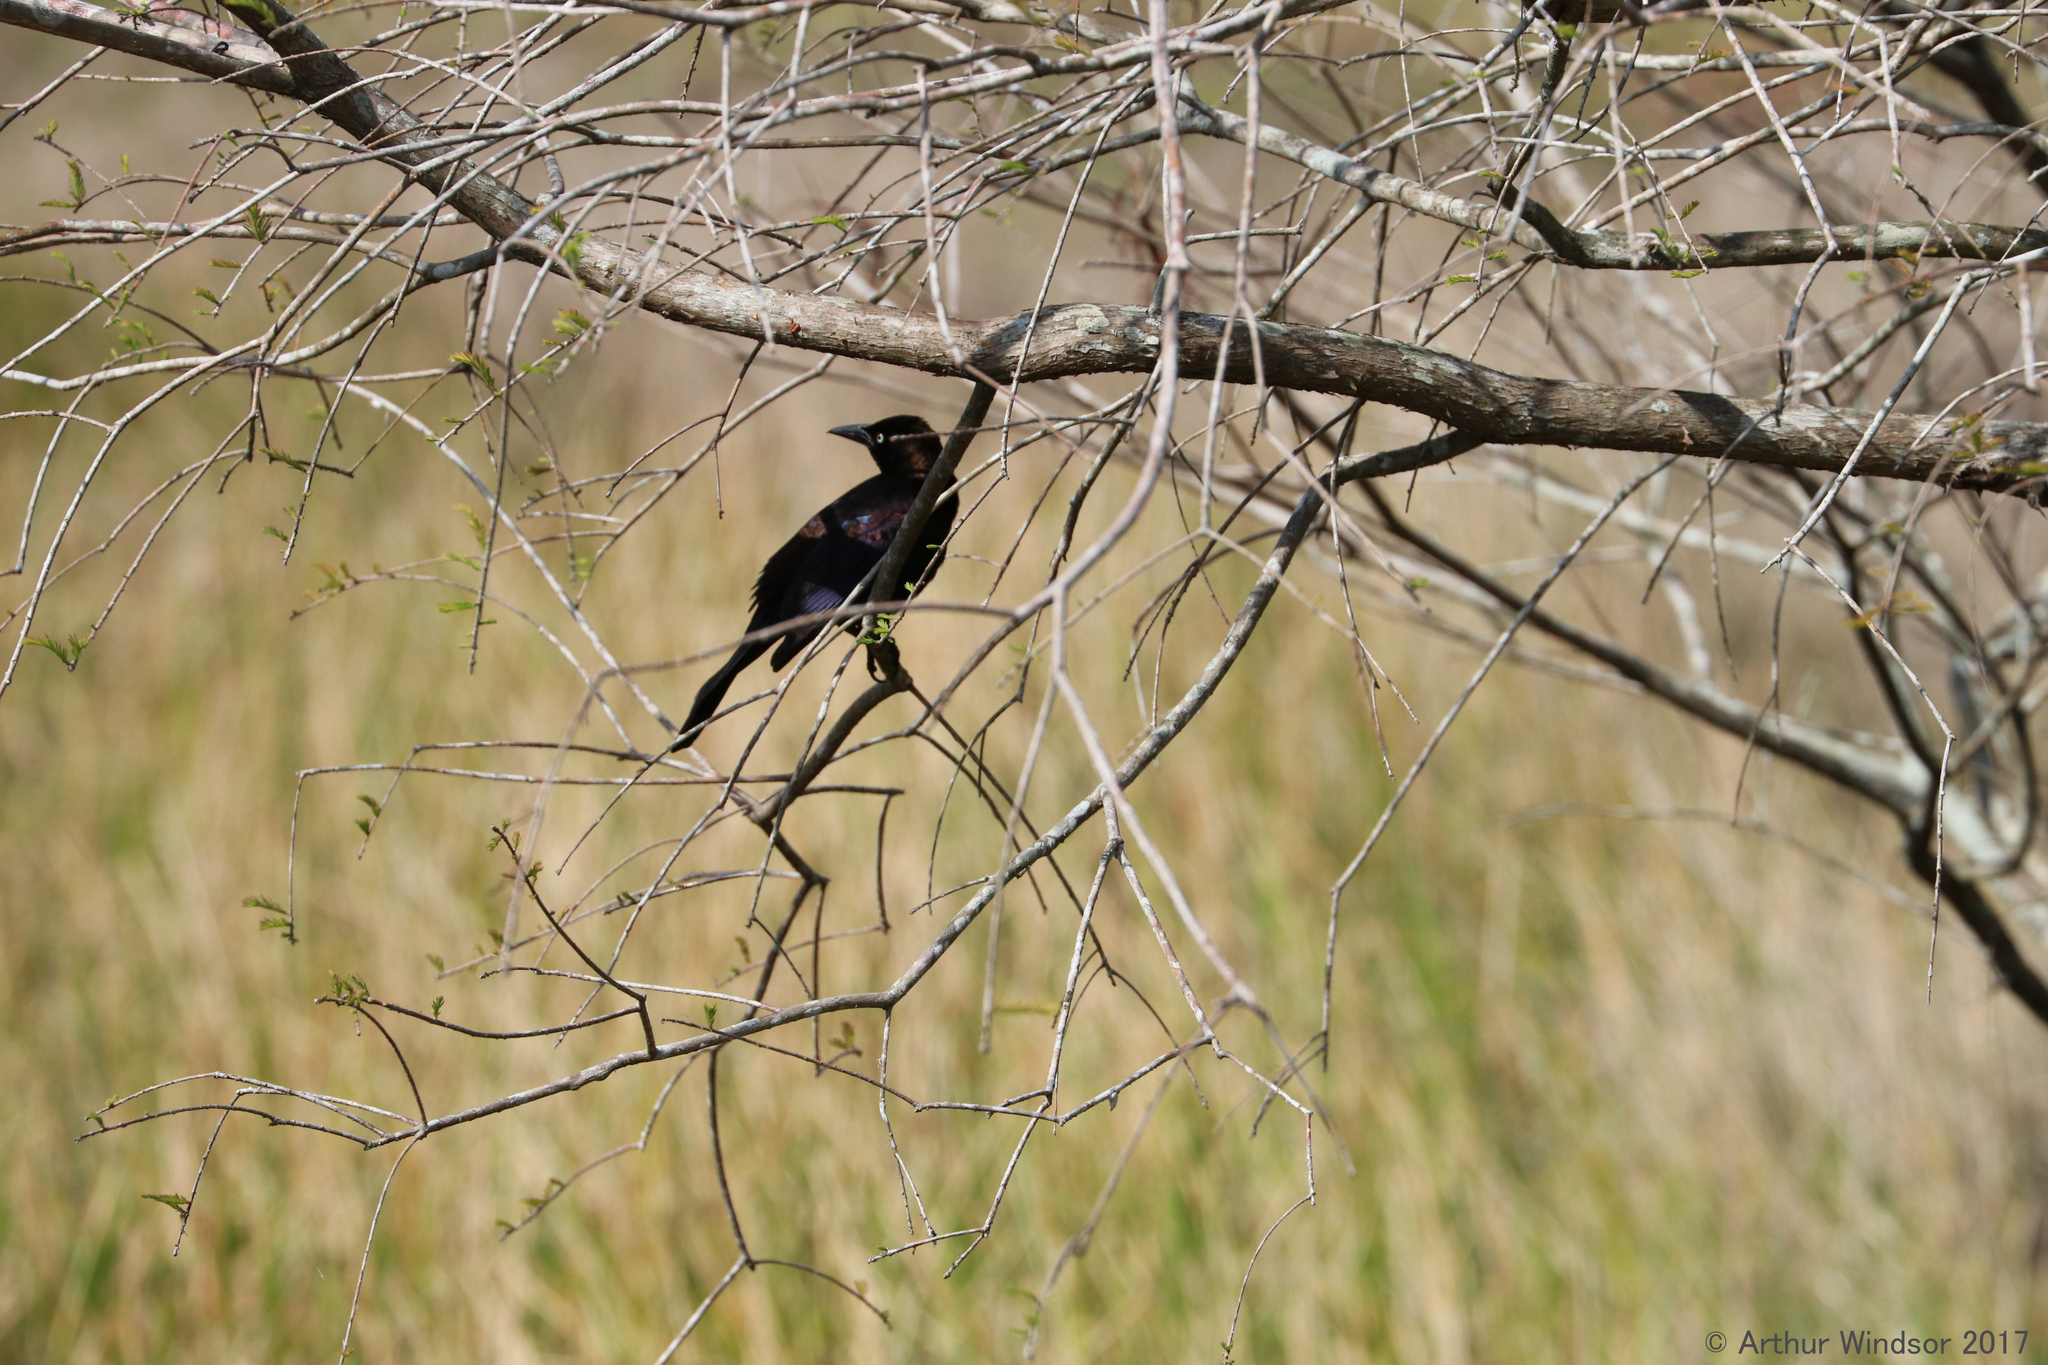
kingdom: Animalia
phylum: Chordata
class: Aves
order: Passeriformes
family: Icteridae
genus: Quiscalus
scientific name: Quiscalus quiscula
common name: Common grackle
